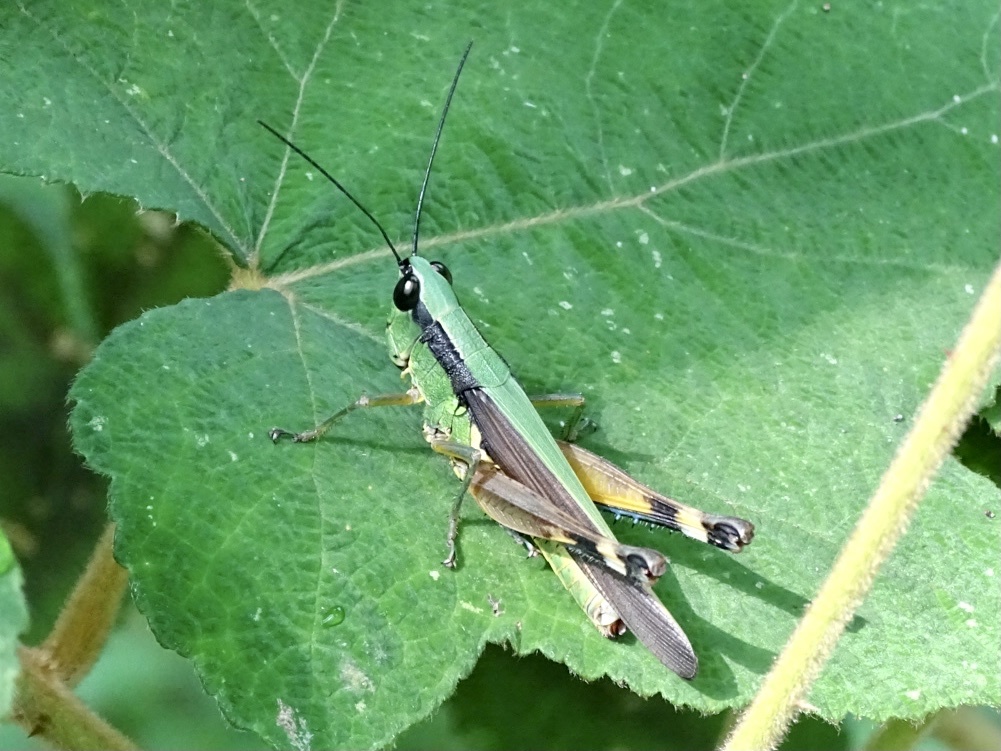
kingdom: Animalia
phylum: Arthropoda
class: Insecta
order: Orthoptera
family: Acrididae
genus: Ceracris
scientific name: Ceracris nigricornis
